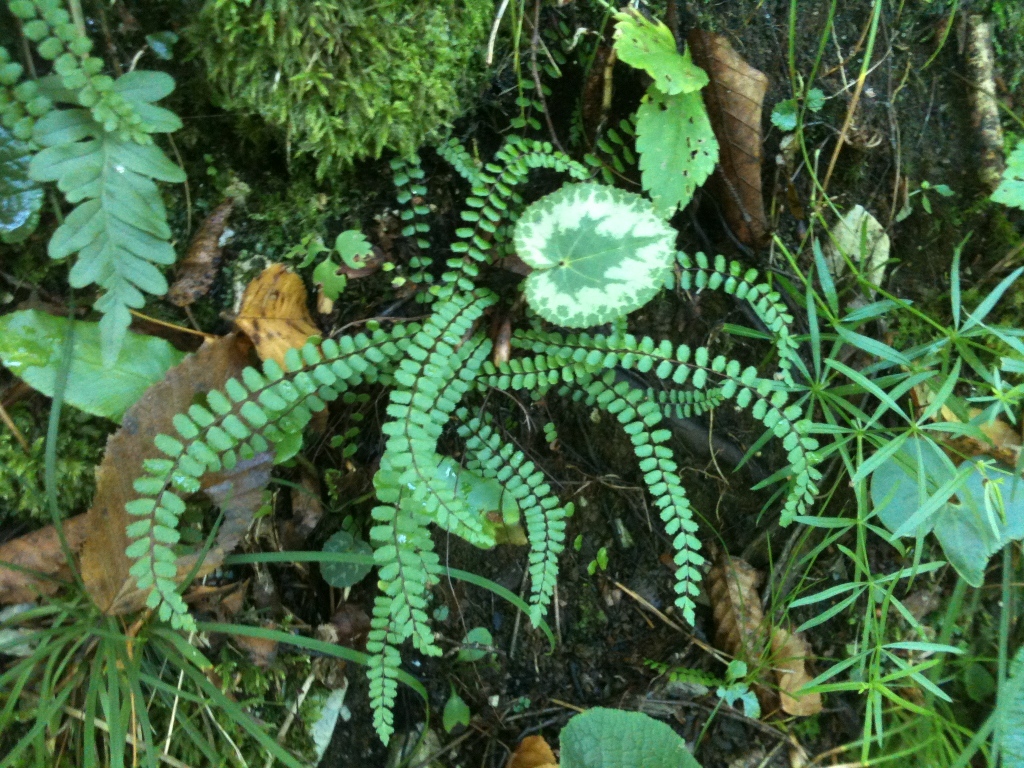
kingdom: Plantae
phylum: Tracheophyta
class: Polypodiopsida
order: Polypodiales
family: Aspleniaceae
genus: Asplenium
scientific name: Asplenium trichomanes
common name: Maidenhair spleenwort
